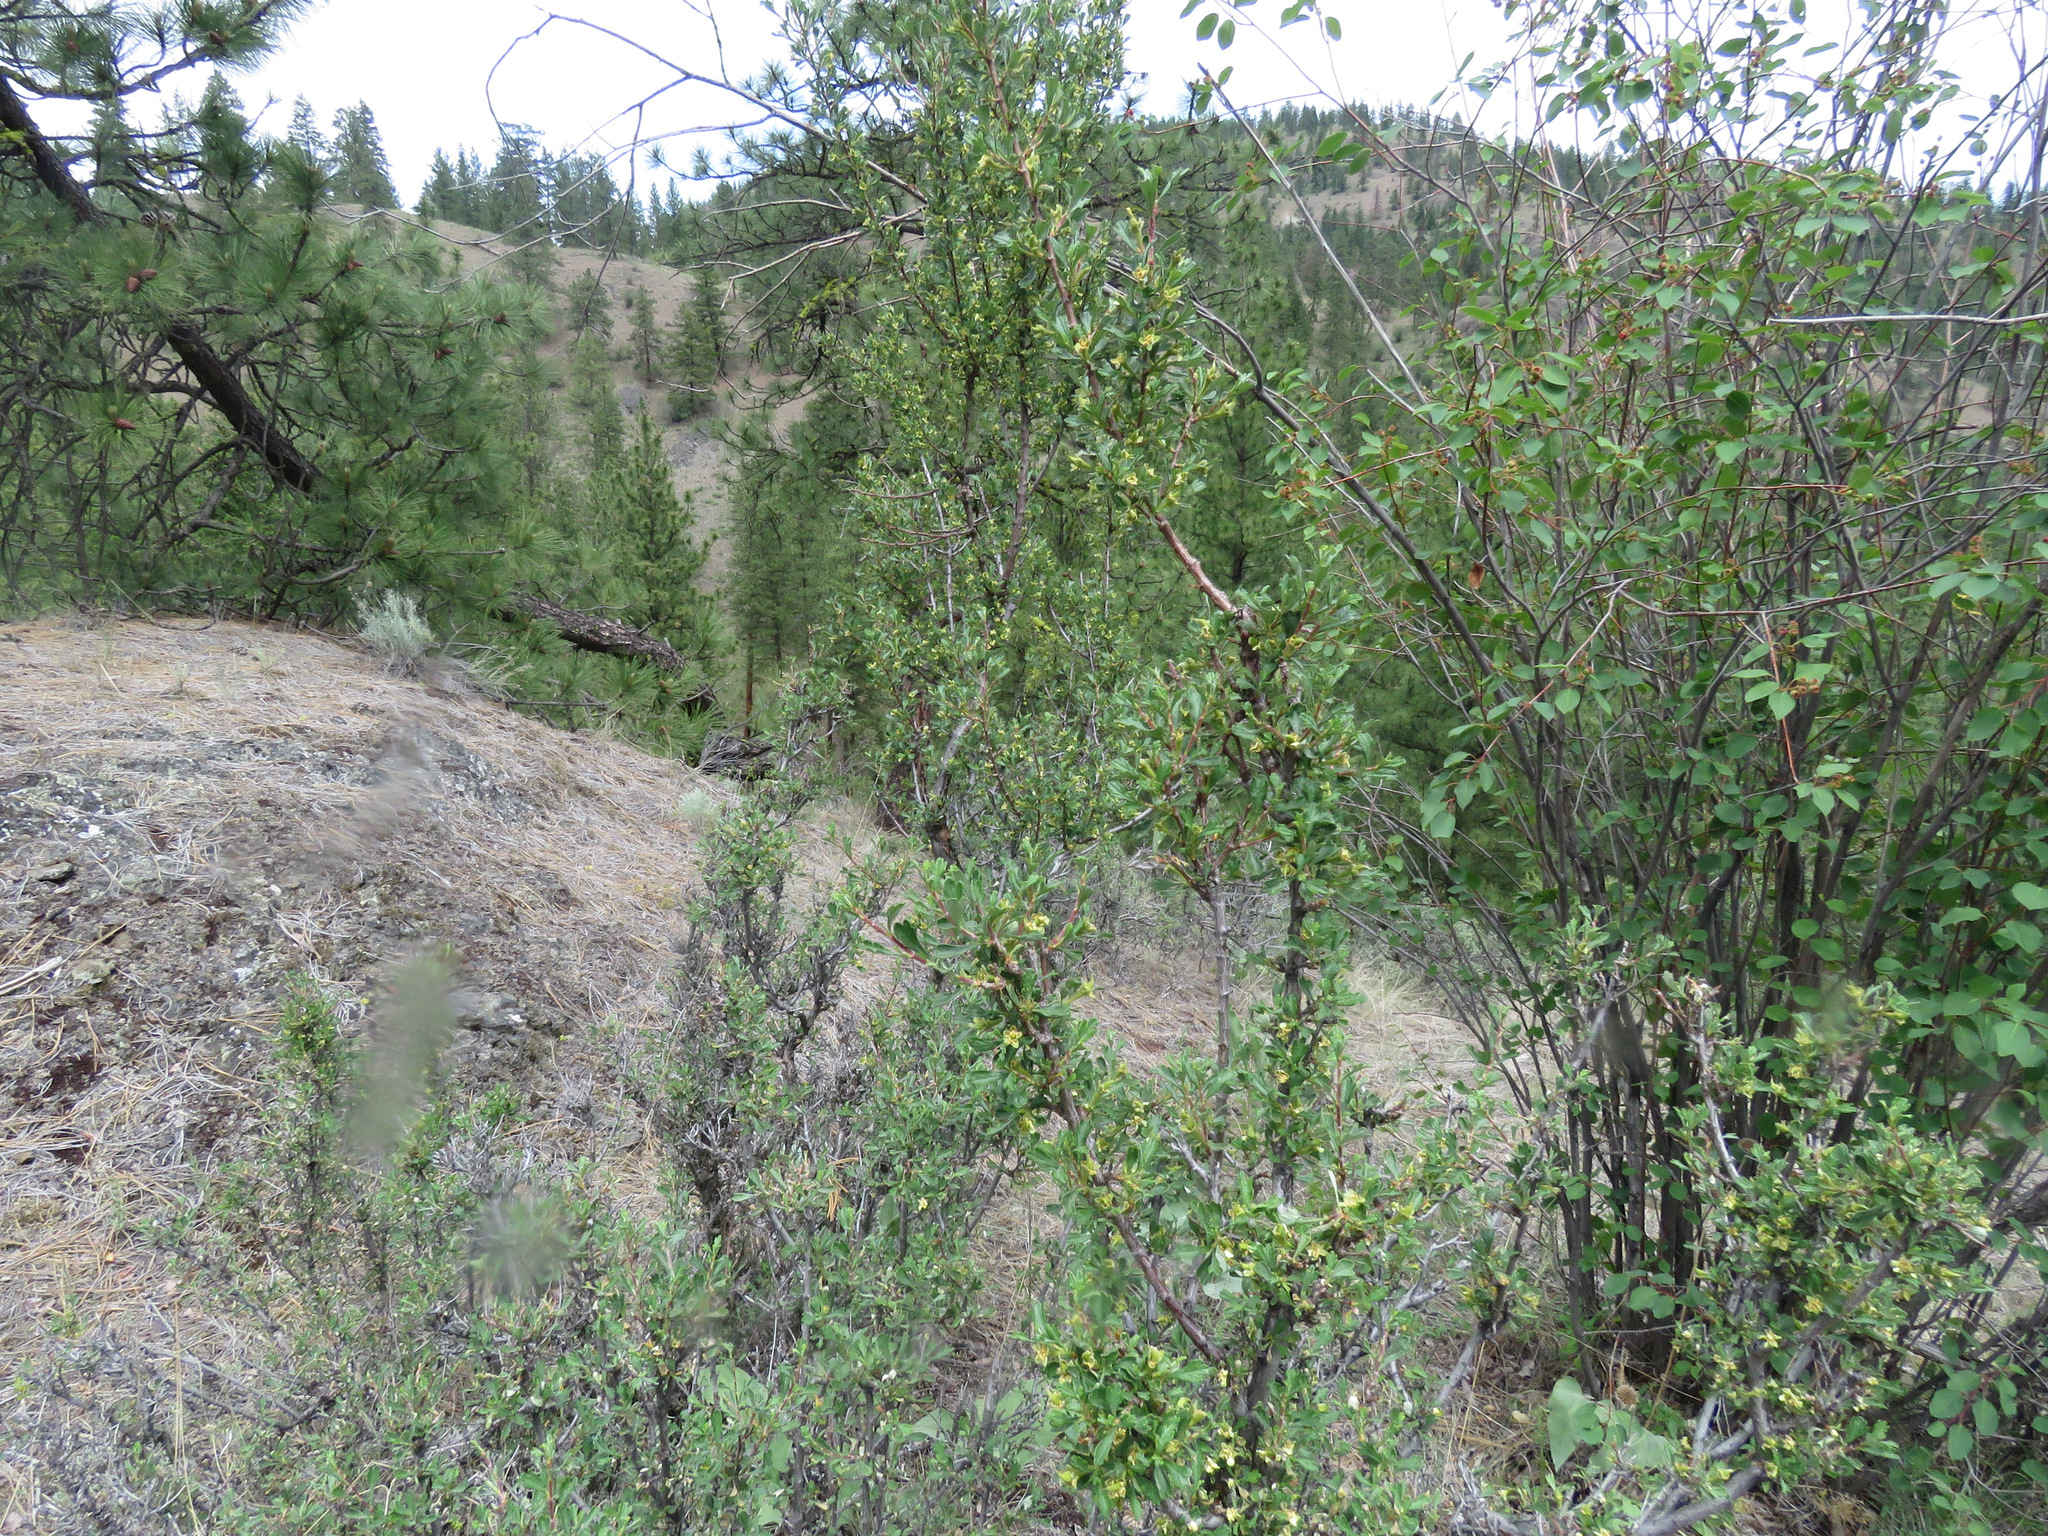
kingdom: Plantae
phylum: Tracheophyta
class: Magnoliopsida
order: Rosales
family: Rosaceae
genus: Purshia
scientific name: Purshia tridentata
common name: Antelope bitterbrush
